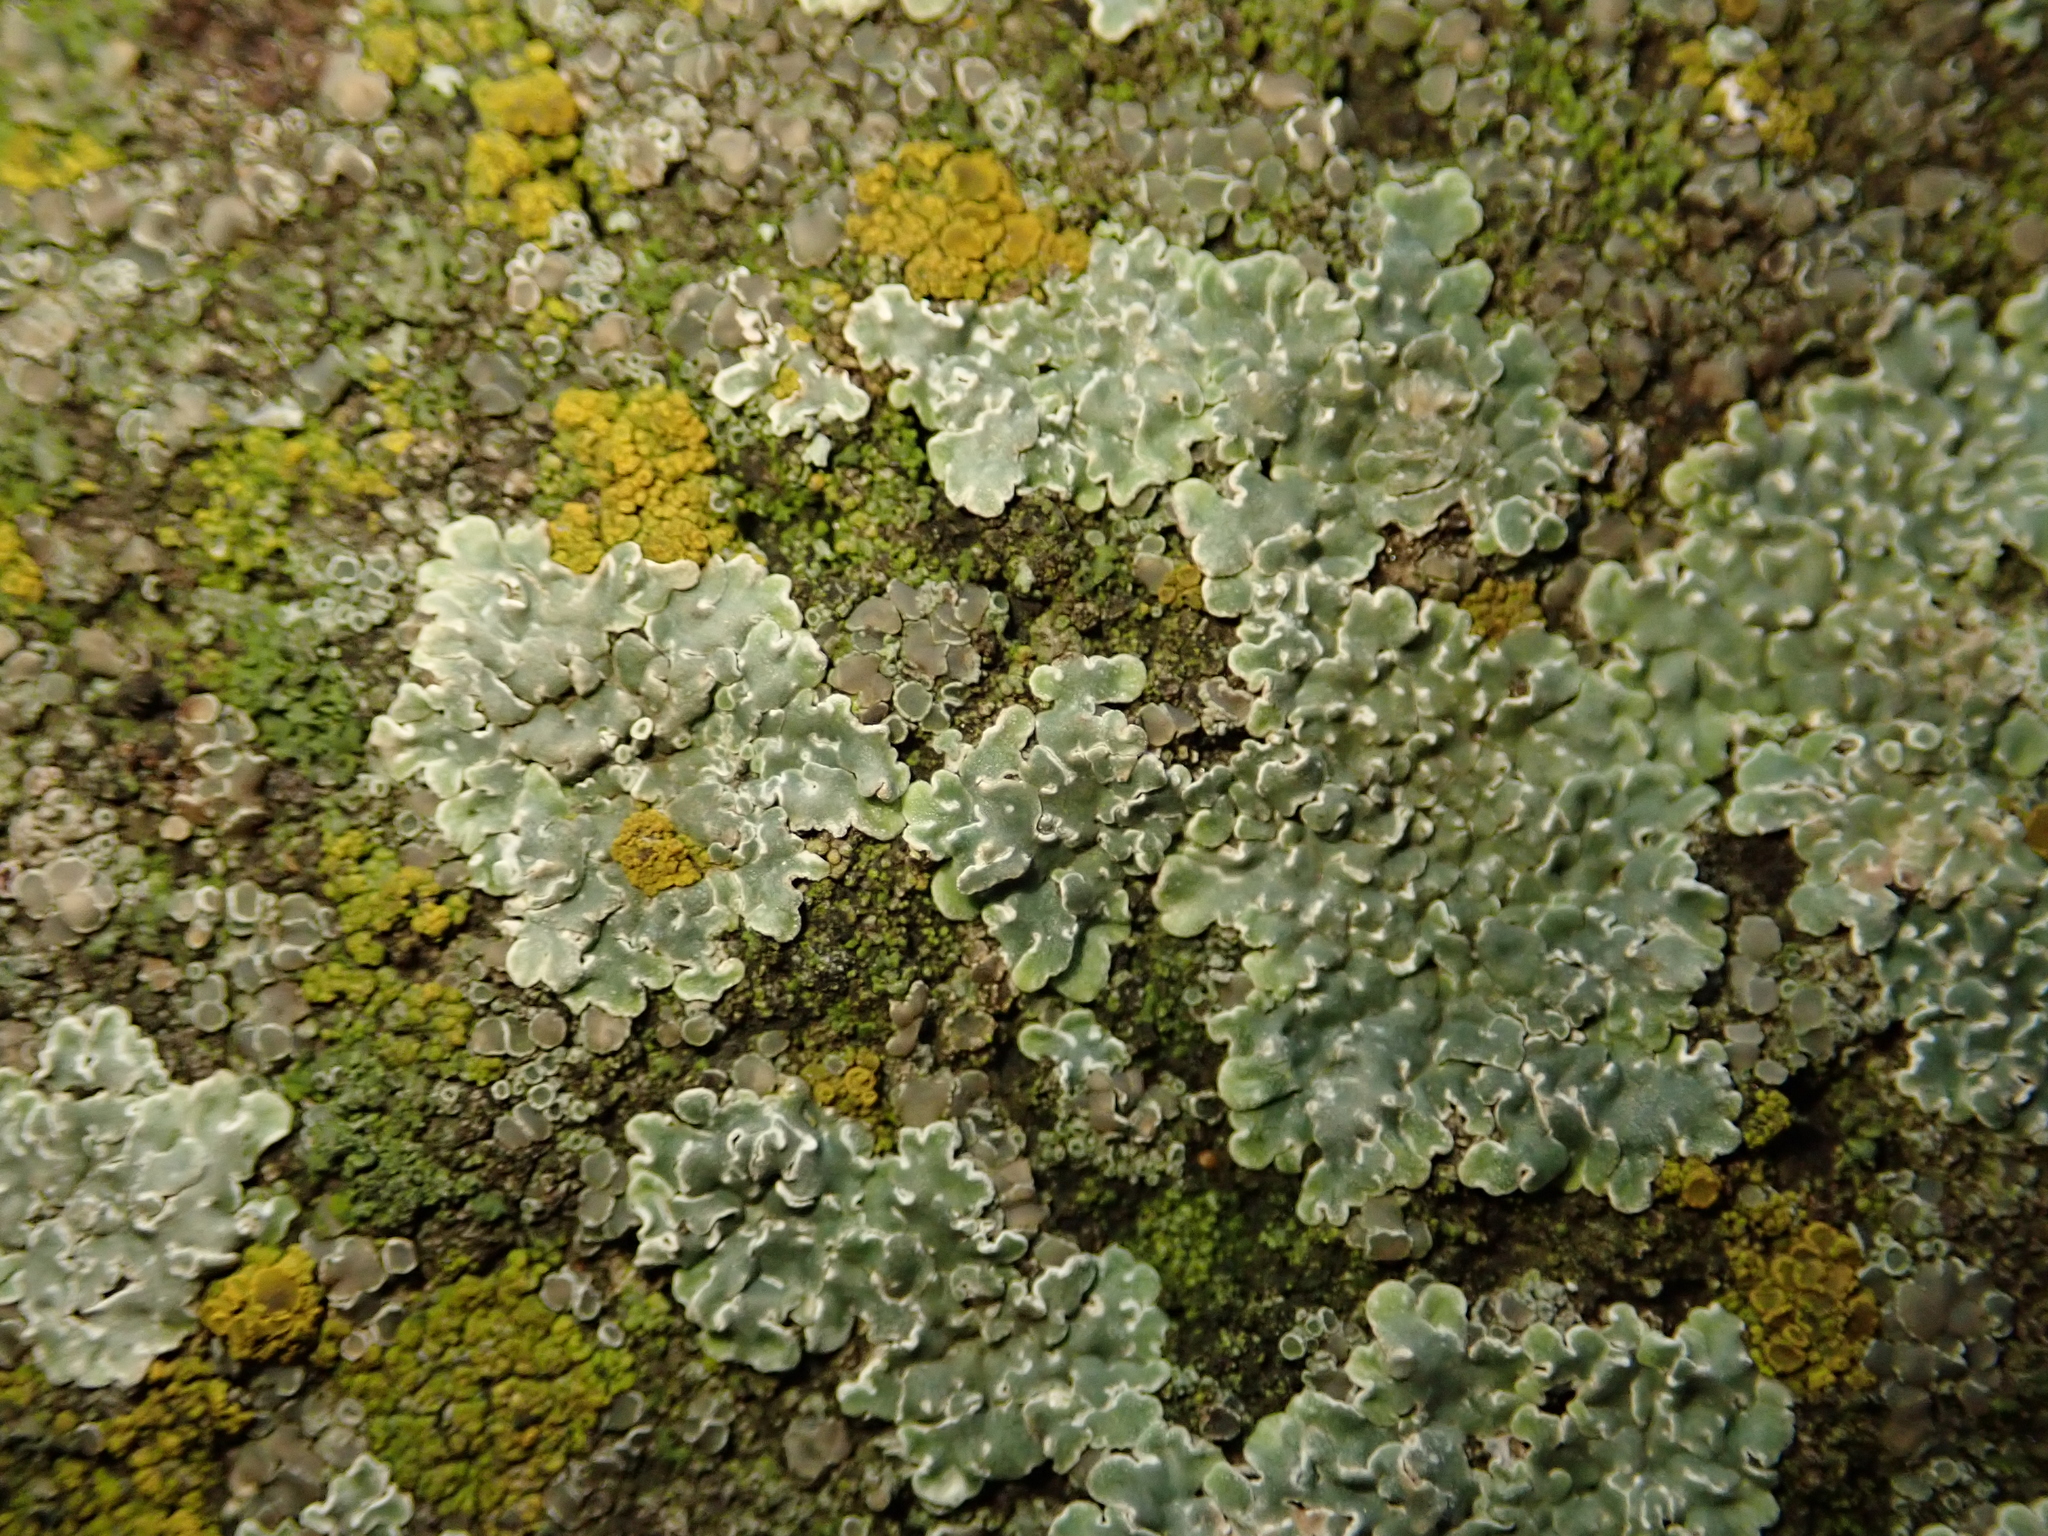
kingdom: Fungi
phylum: Ascomycota
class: Lecanoromycetes
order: Lecanorales
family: Lecanoraceae
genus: Protoparmeliopsis
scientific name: Protoparmeliopsis muralis
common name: Stonewall rim lichen
